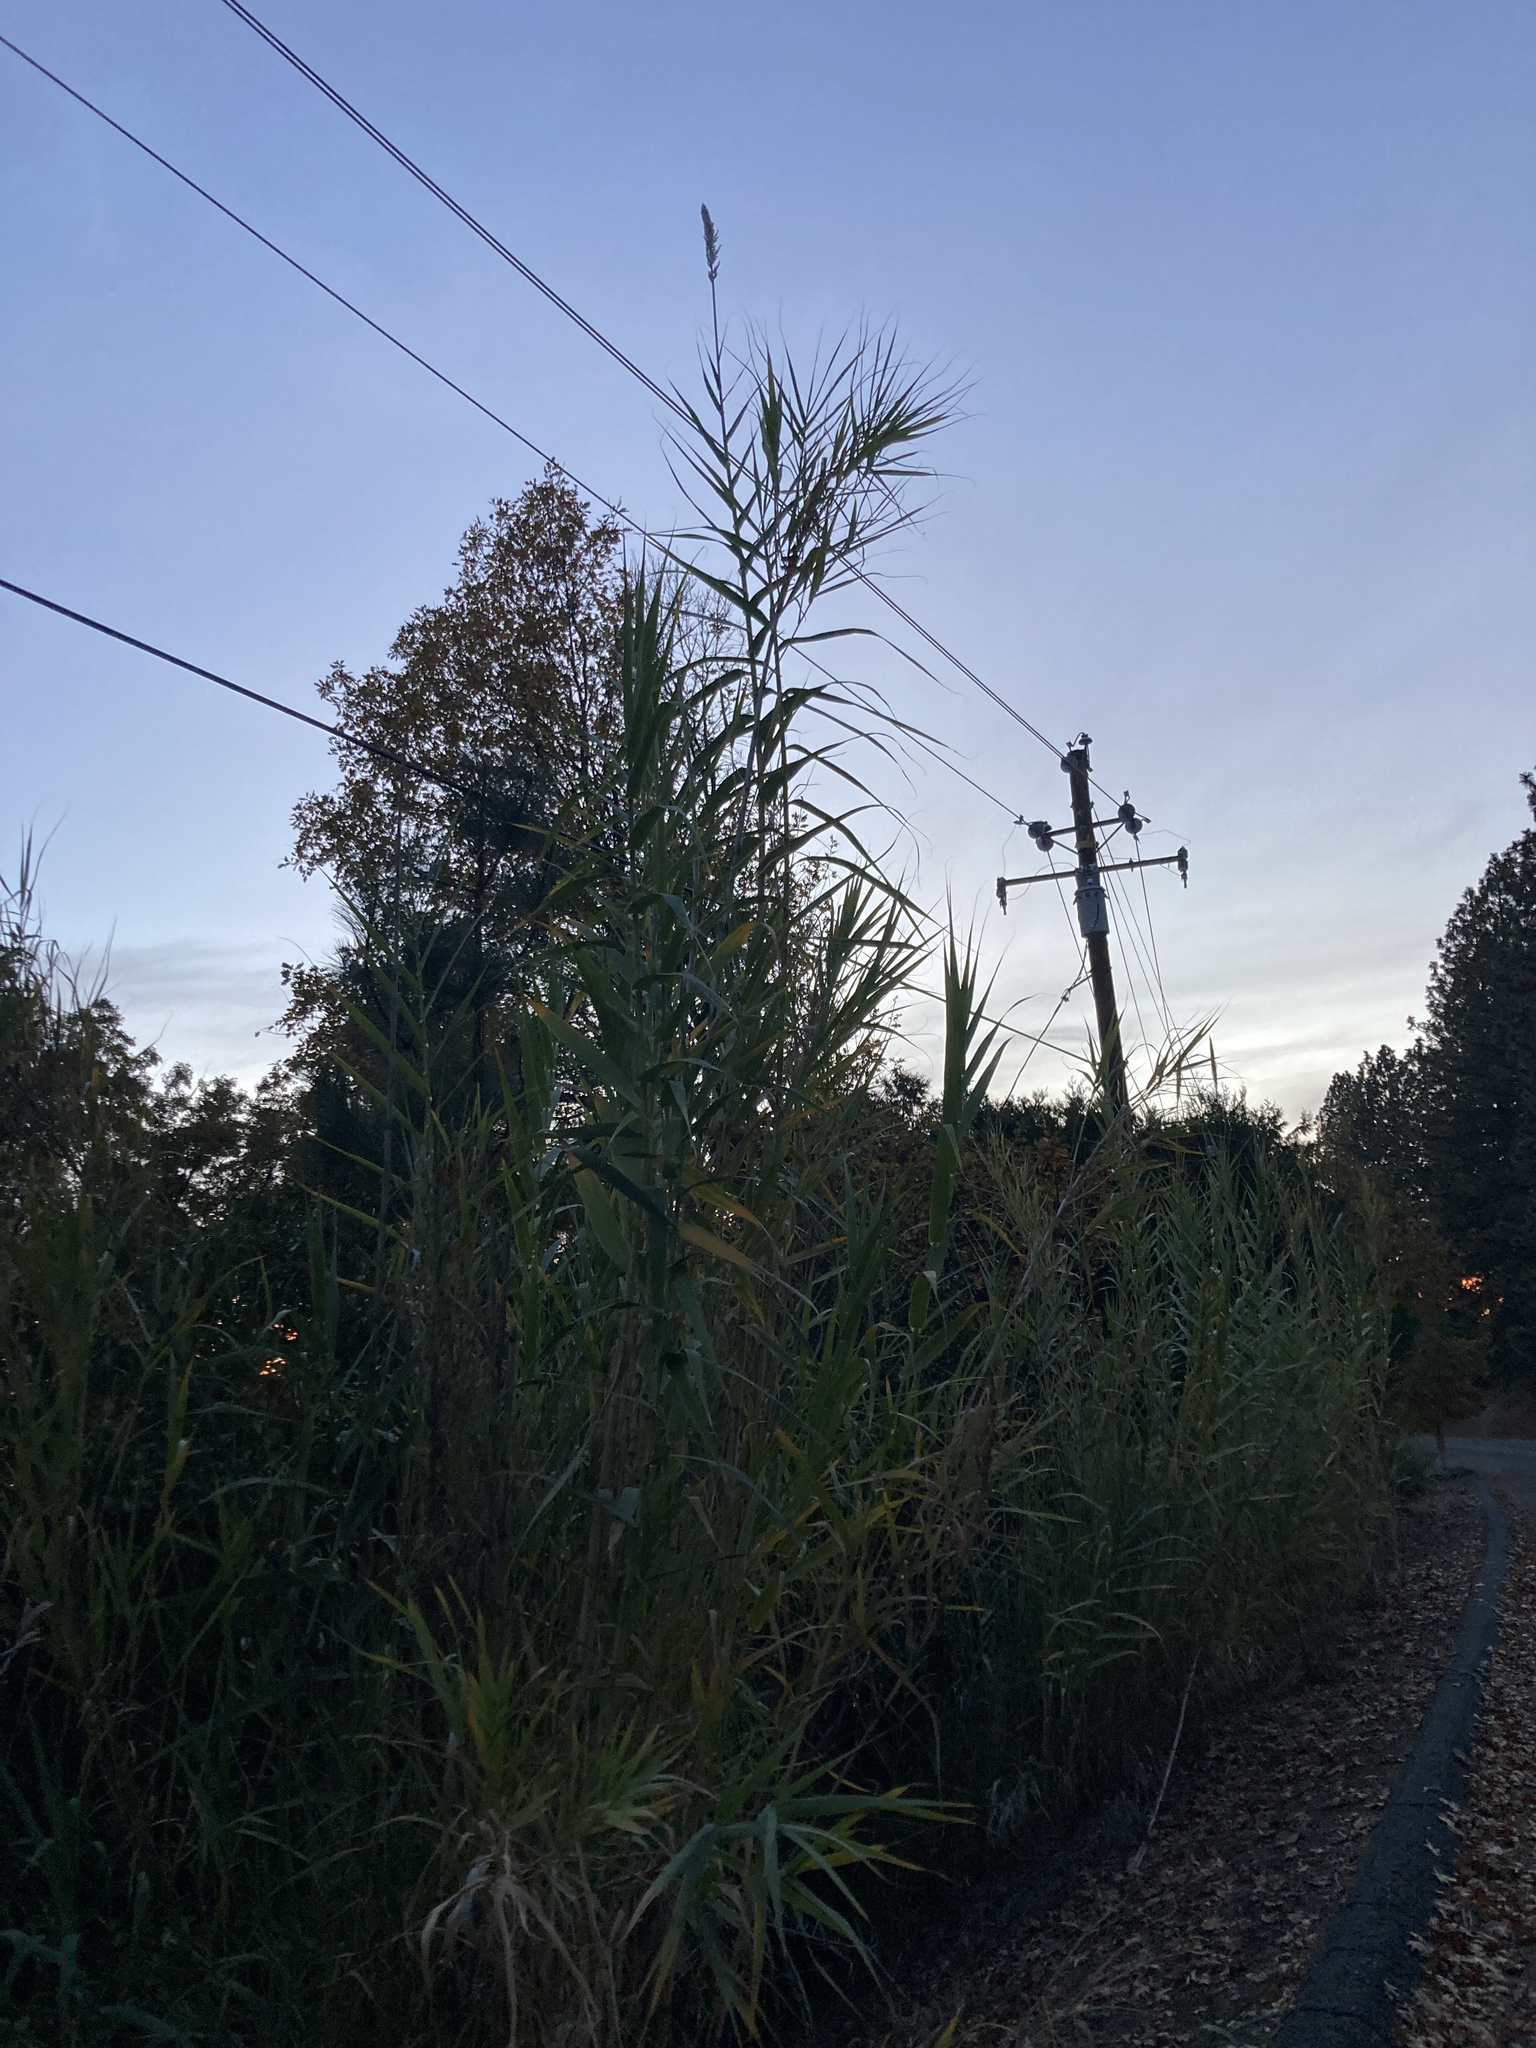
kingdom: Plantae
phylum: Tracheophyta
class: Liliopsida
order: Poales
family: Poaceae
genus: Arundo
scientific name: Arundo donax
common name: Giant reed
